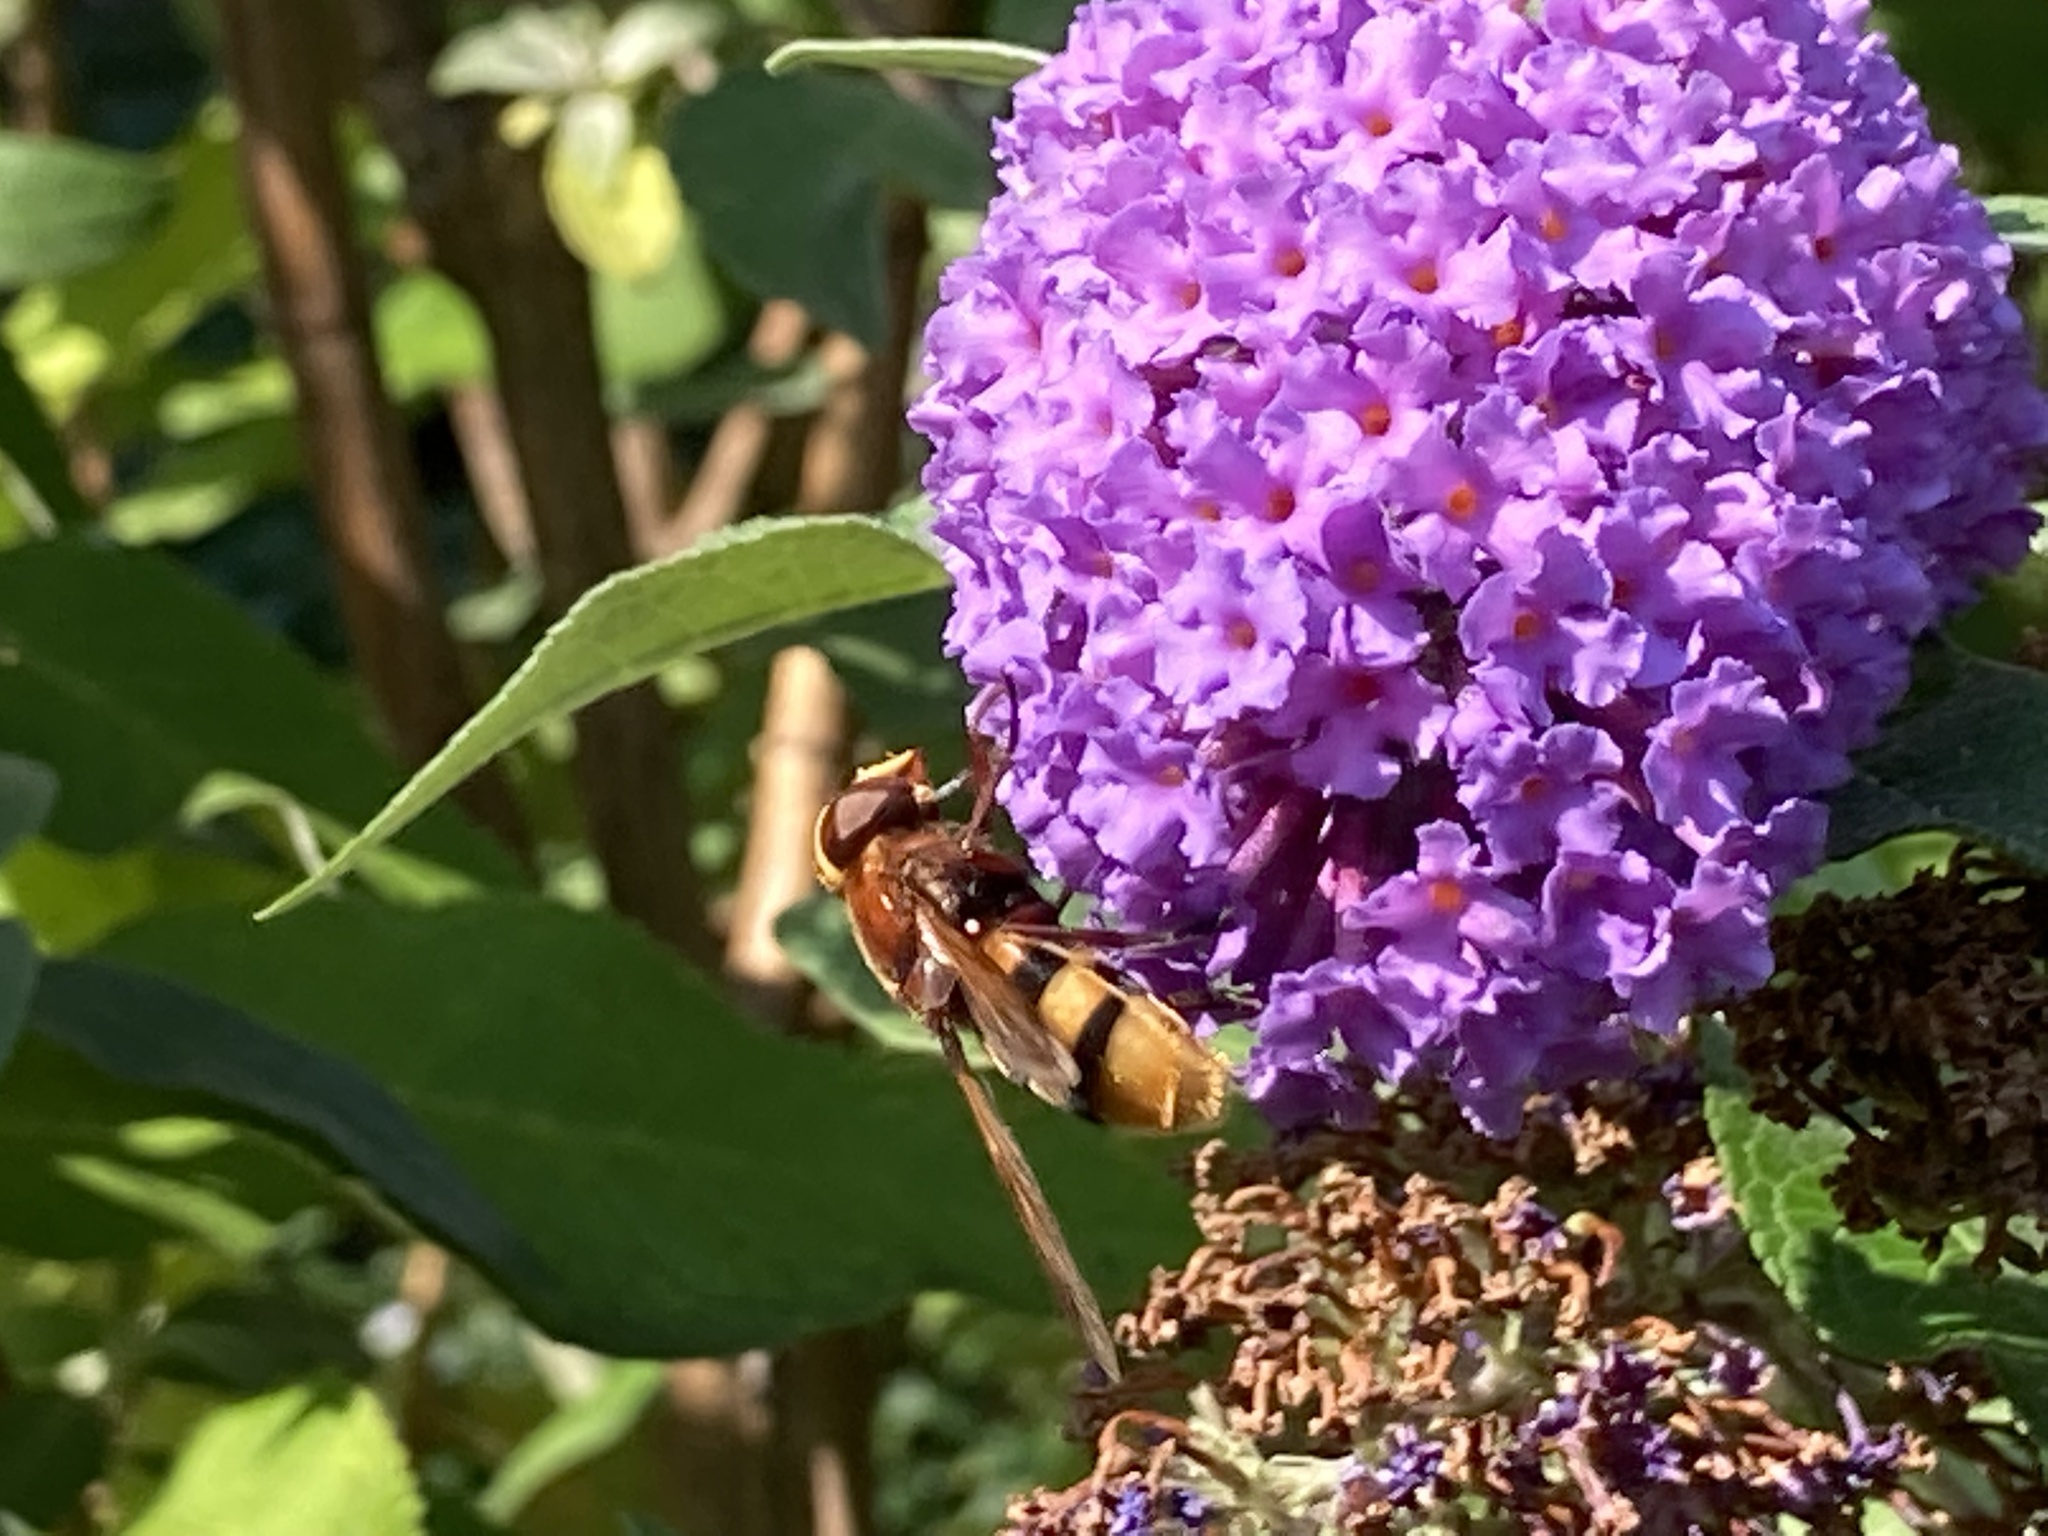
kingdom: Animalia
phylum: Arthropoda
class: Insecta
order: Diptera
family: Syrphidae
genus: Volucella
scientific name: Volucella zonaria
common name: Hornet hoverfly
